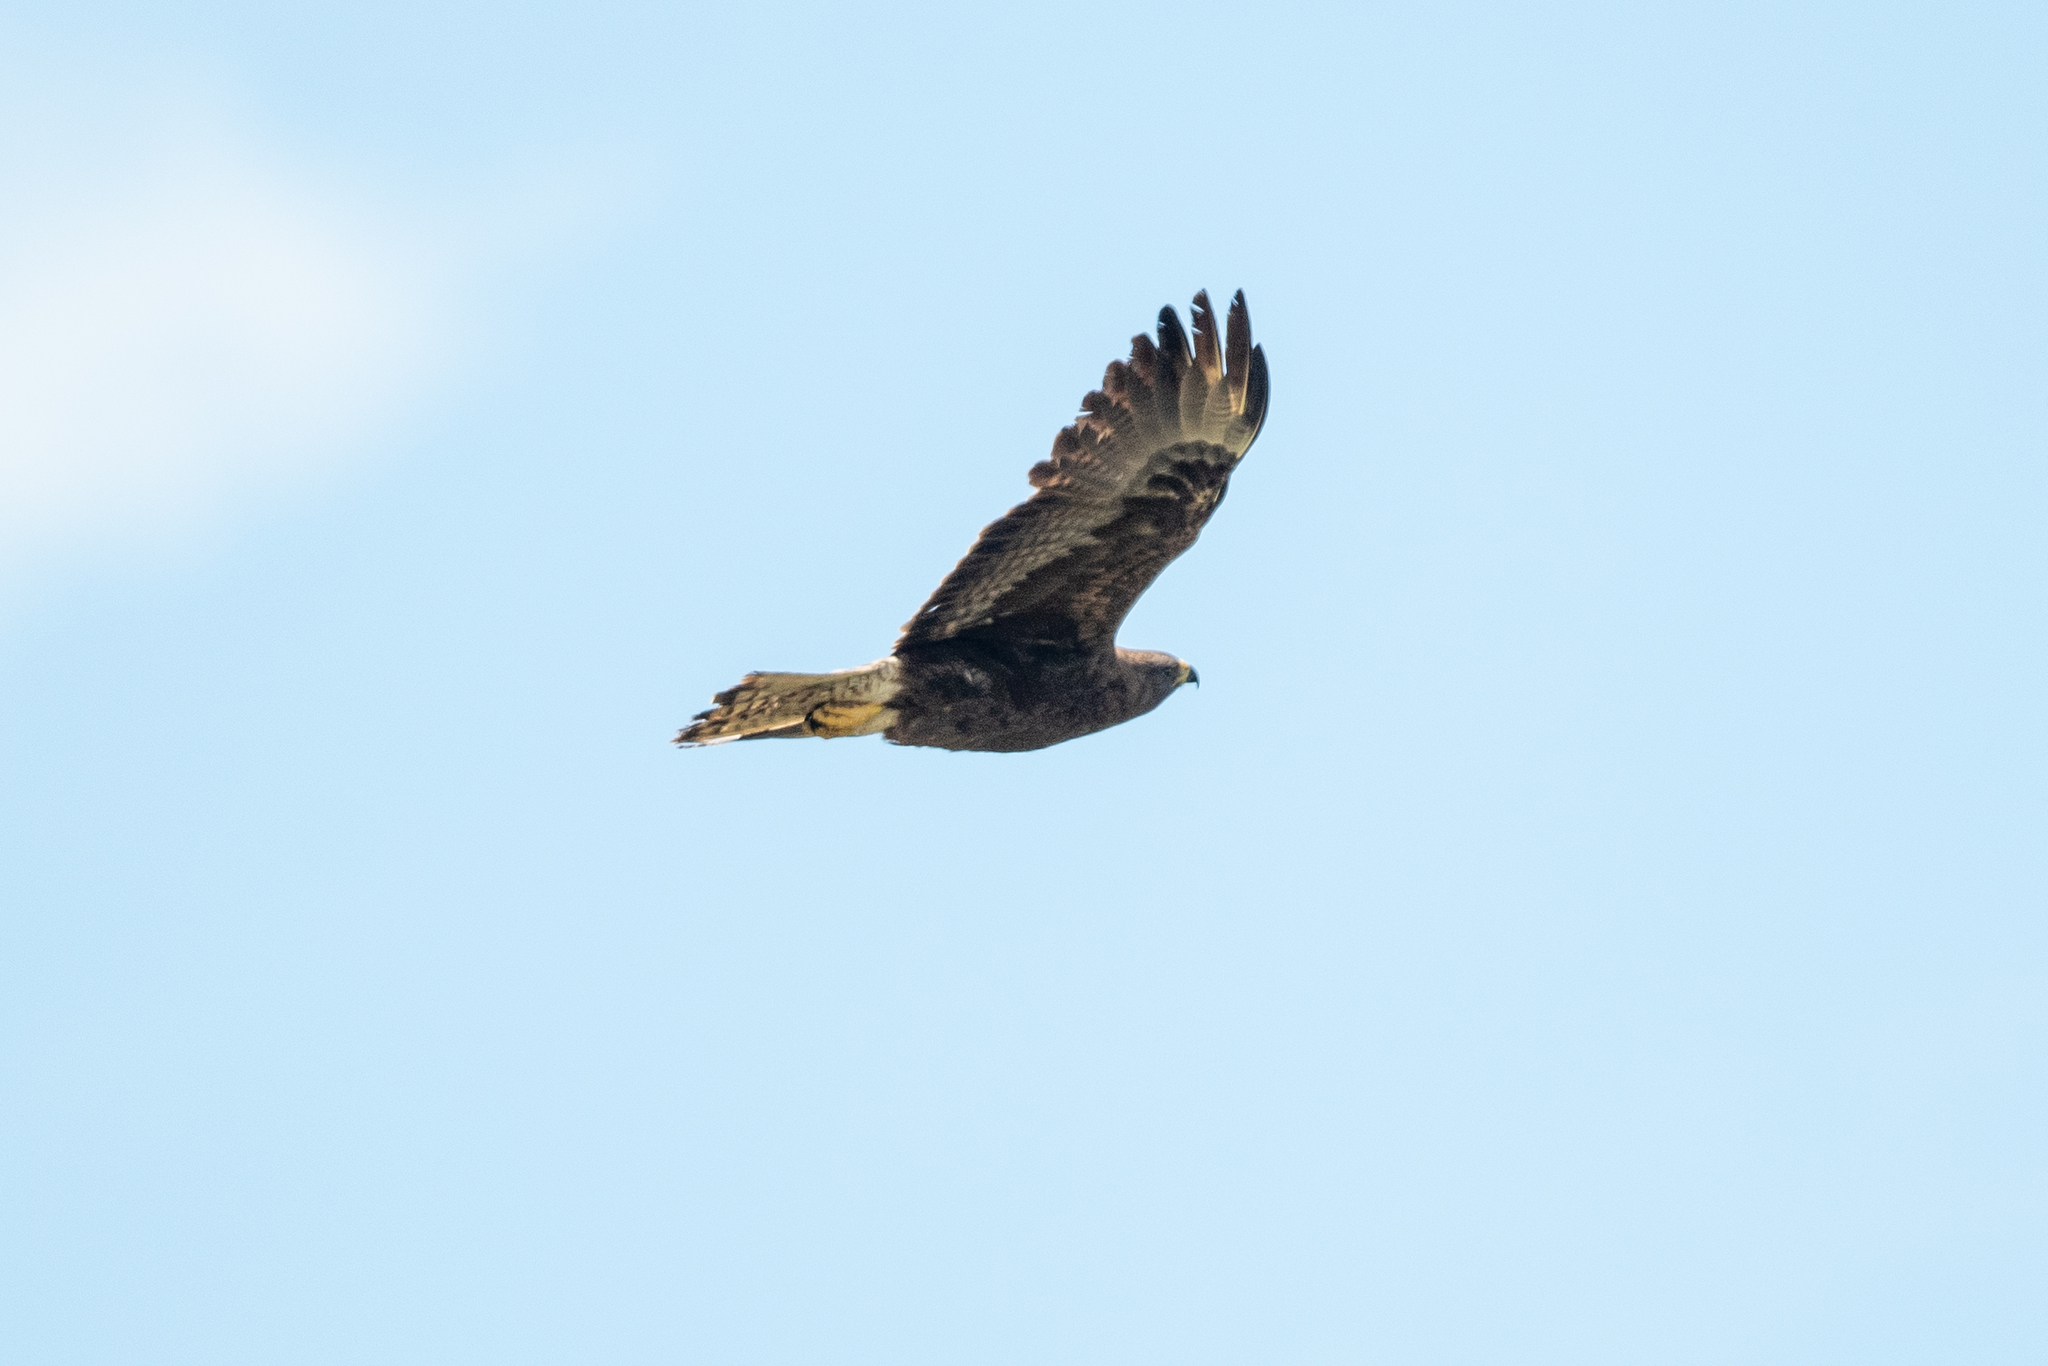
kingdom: Animalia
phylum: Chordata
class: Aves
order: Accipitriformes
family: Accipitridae
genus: Buteo
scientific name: Buteo swainsoni
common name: Swainson's hawk
